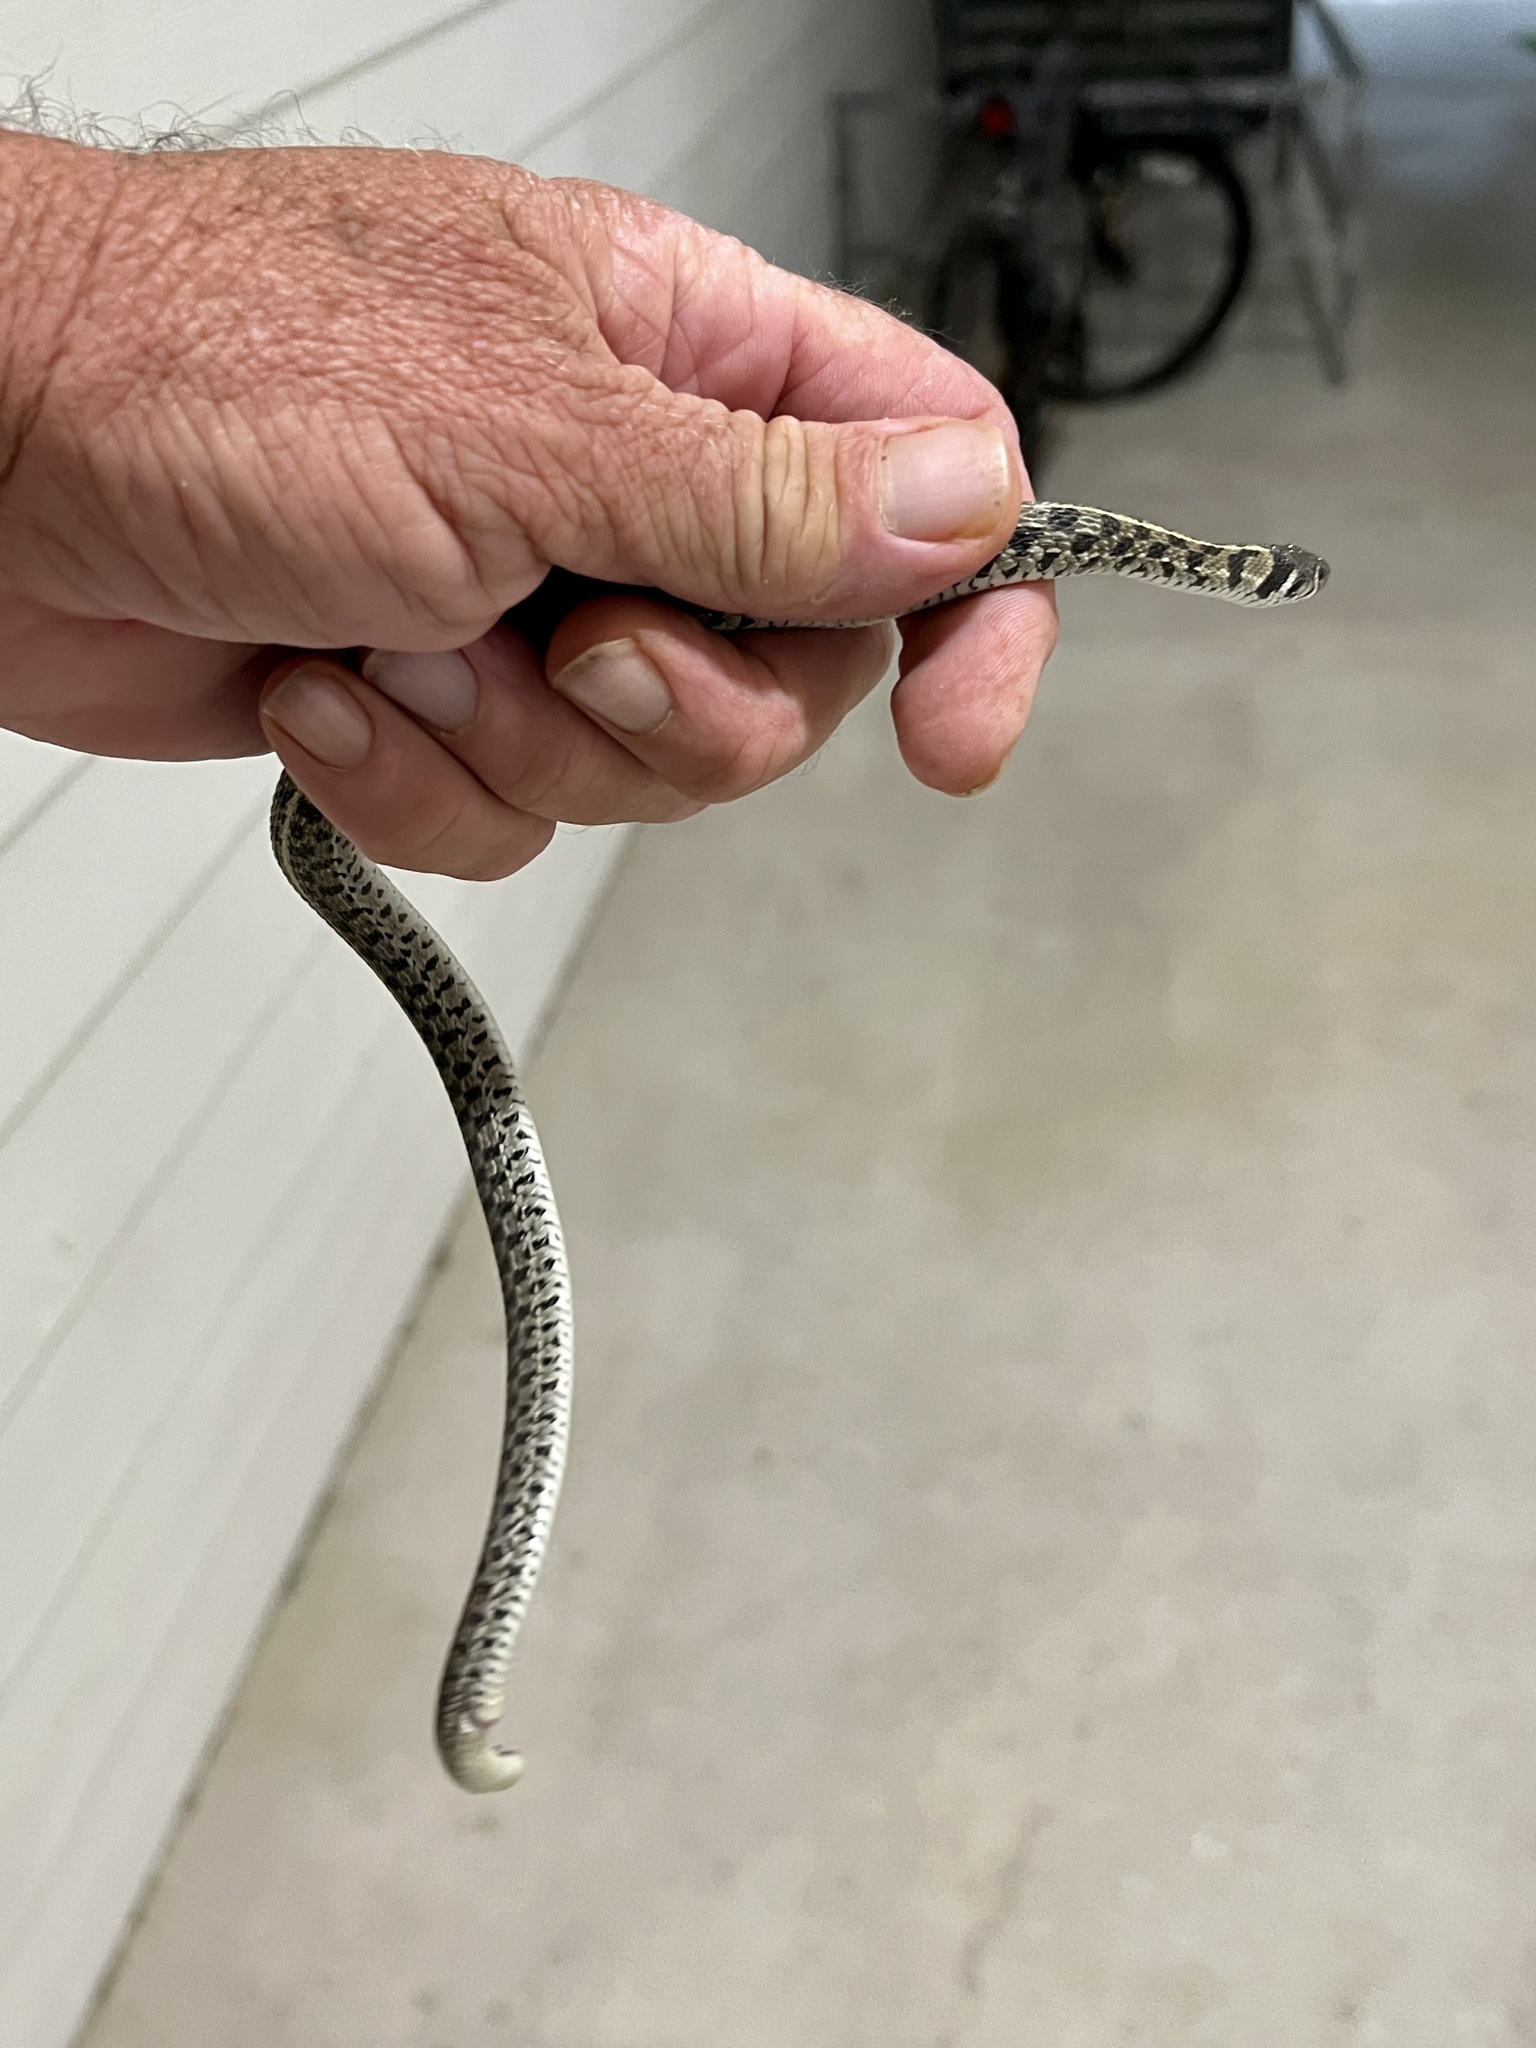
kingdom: Animalia
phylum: Chordata
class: Squamata
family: Colubridae
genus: Thamnophis
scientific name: Thamnophis marcianus
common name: Checkered garter snake
